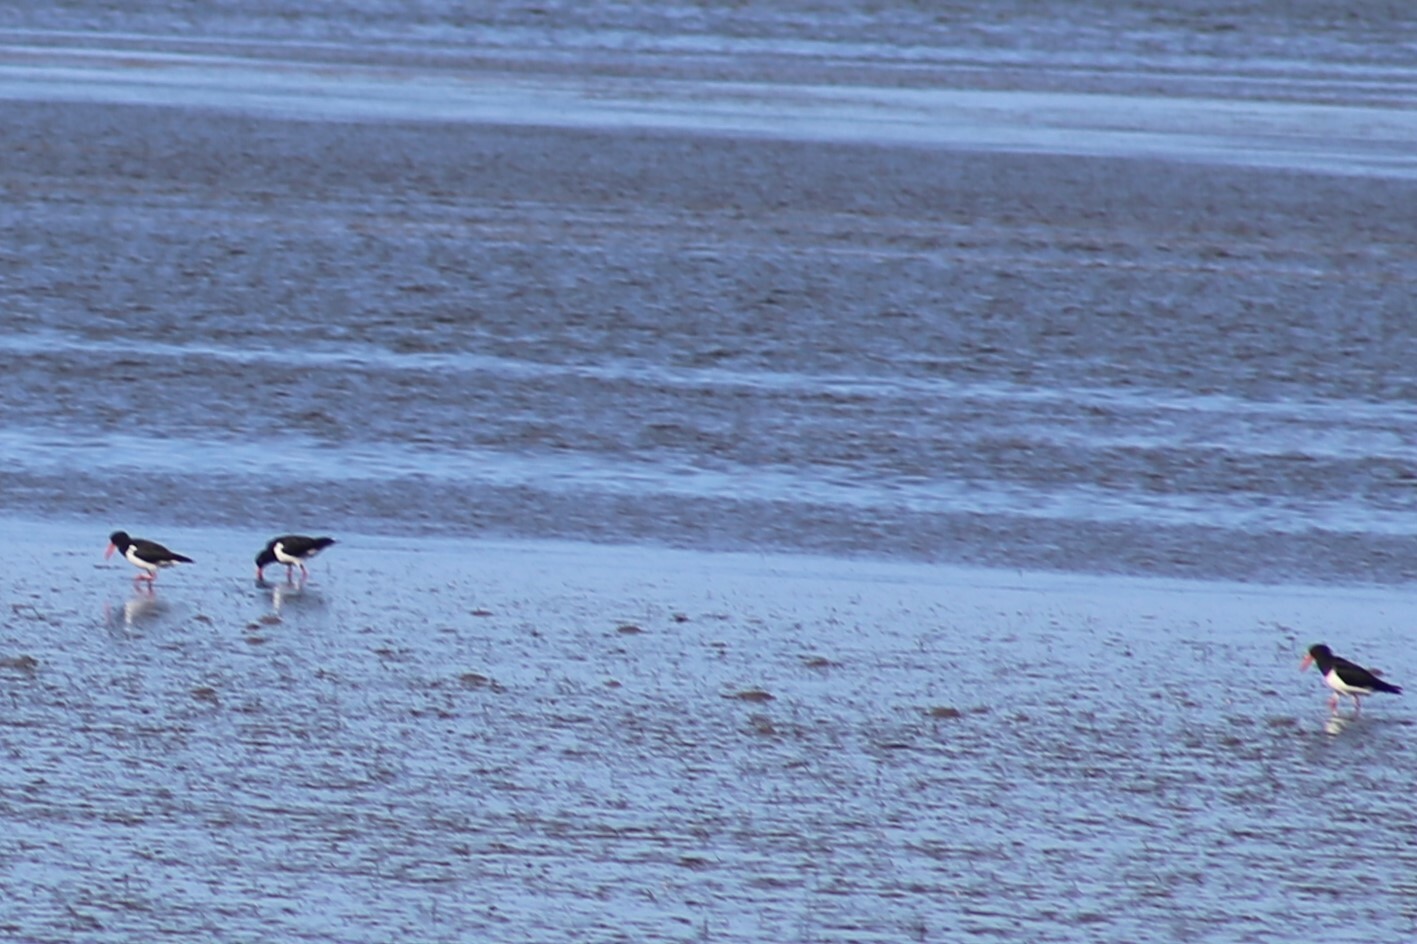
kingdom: Animalia
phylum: Chordata
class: Aves
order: Charadriiformes
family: Haematopodidae
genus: Haematopus
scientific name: Haematopus longirostris
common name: Pied oystercatcher
